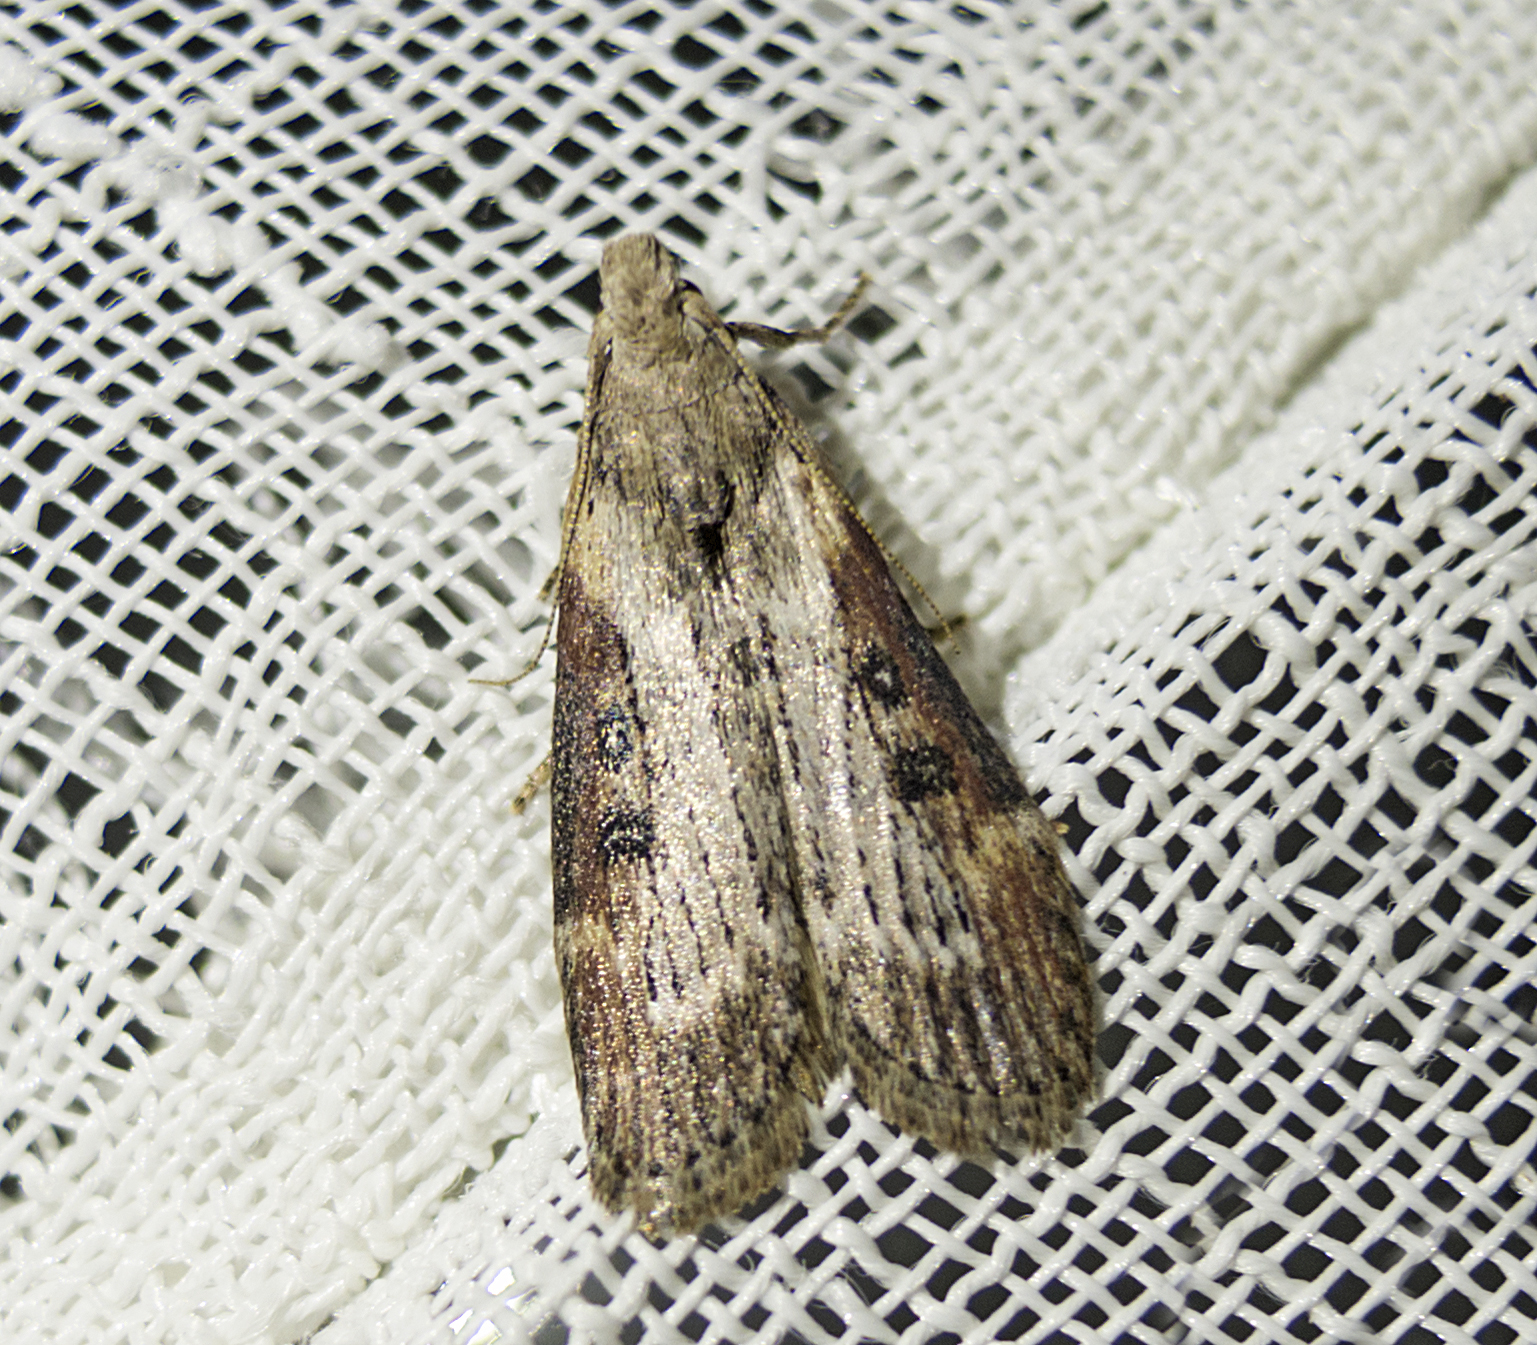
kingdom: Animalia
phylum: Arthropoda
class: Insecta
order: Lepidoptera
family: Pyralidae
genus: Lamoria
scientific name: Lamoria anella
